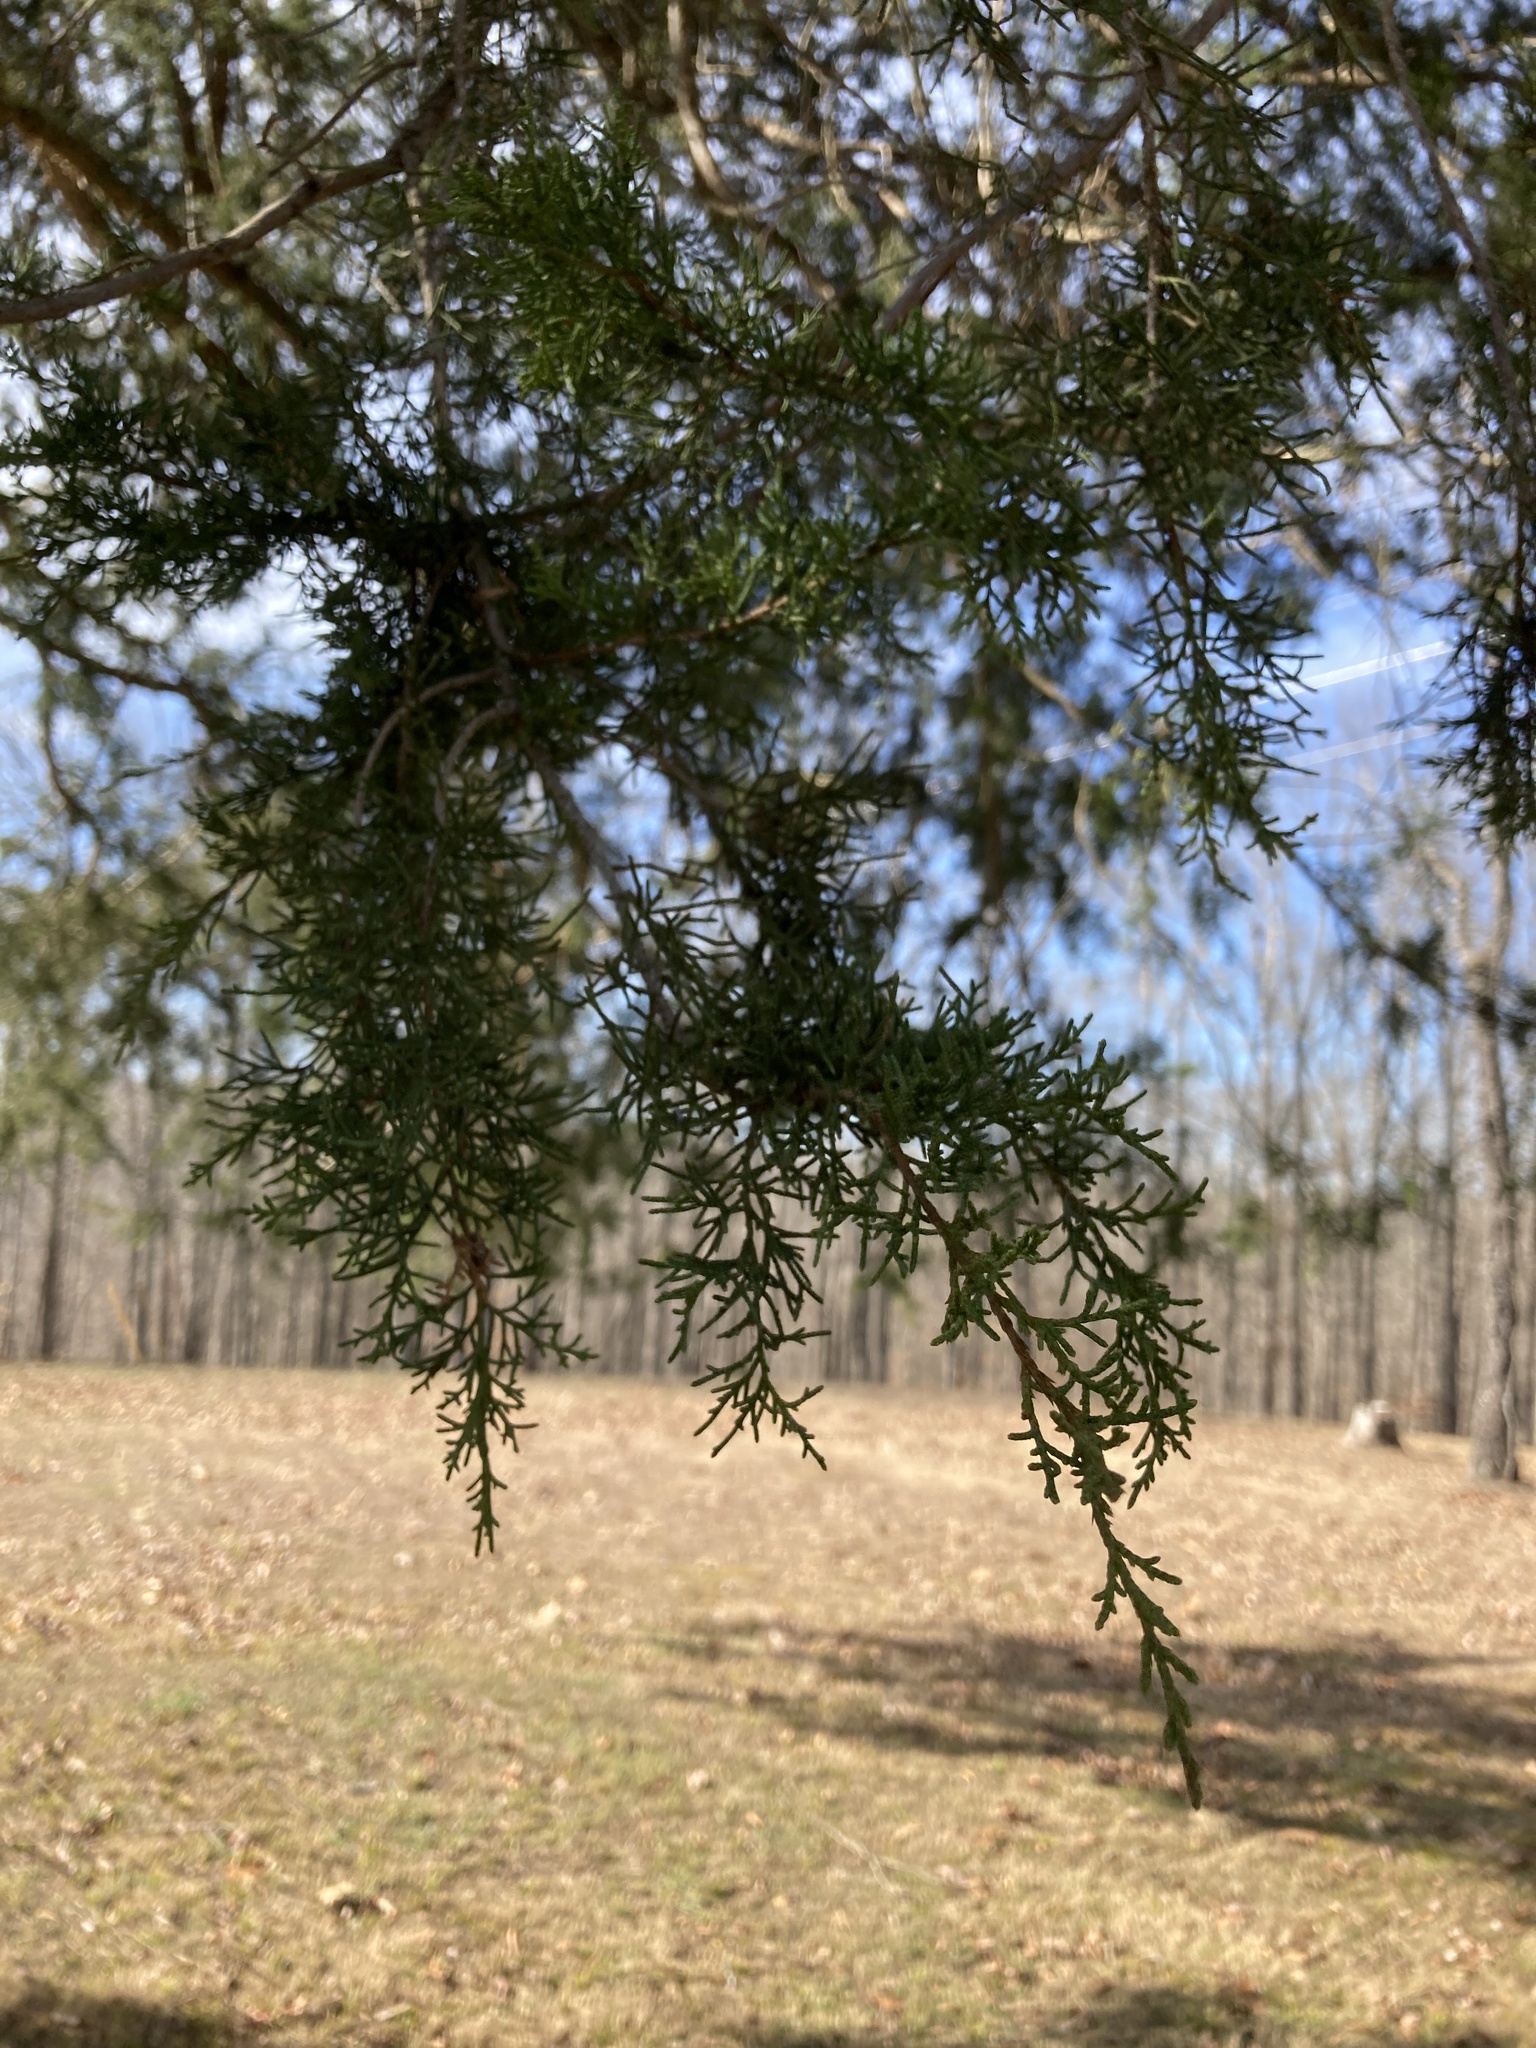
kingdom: Plantae
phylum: Tracheophyta
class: Pinopsida
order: Pinales
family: Cupressaceae
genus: Juniperus
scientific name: Juniperus virginiana
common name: Red juniper
